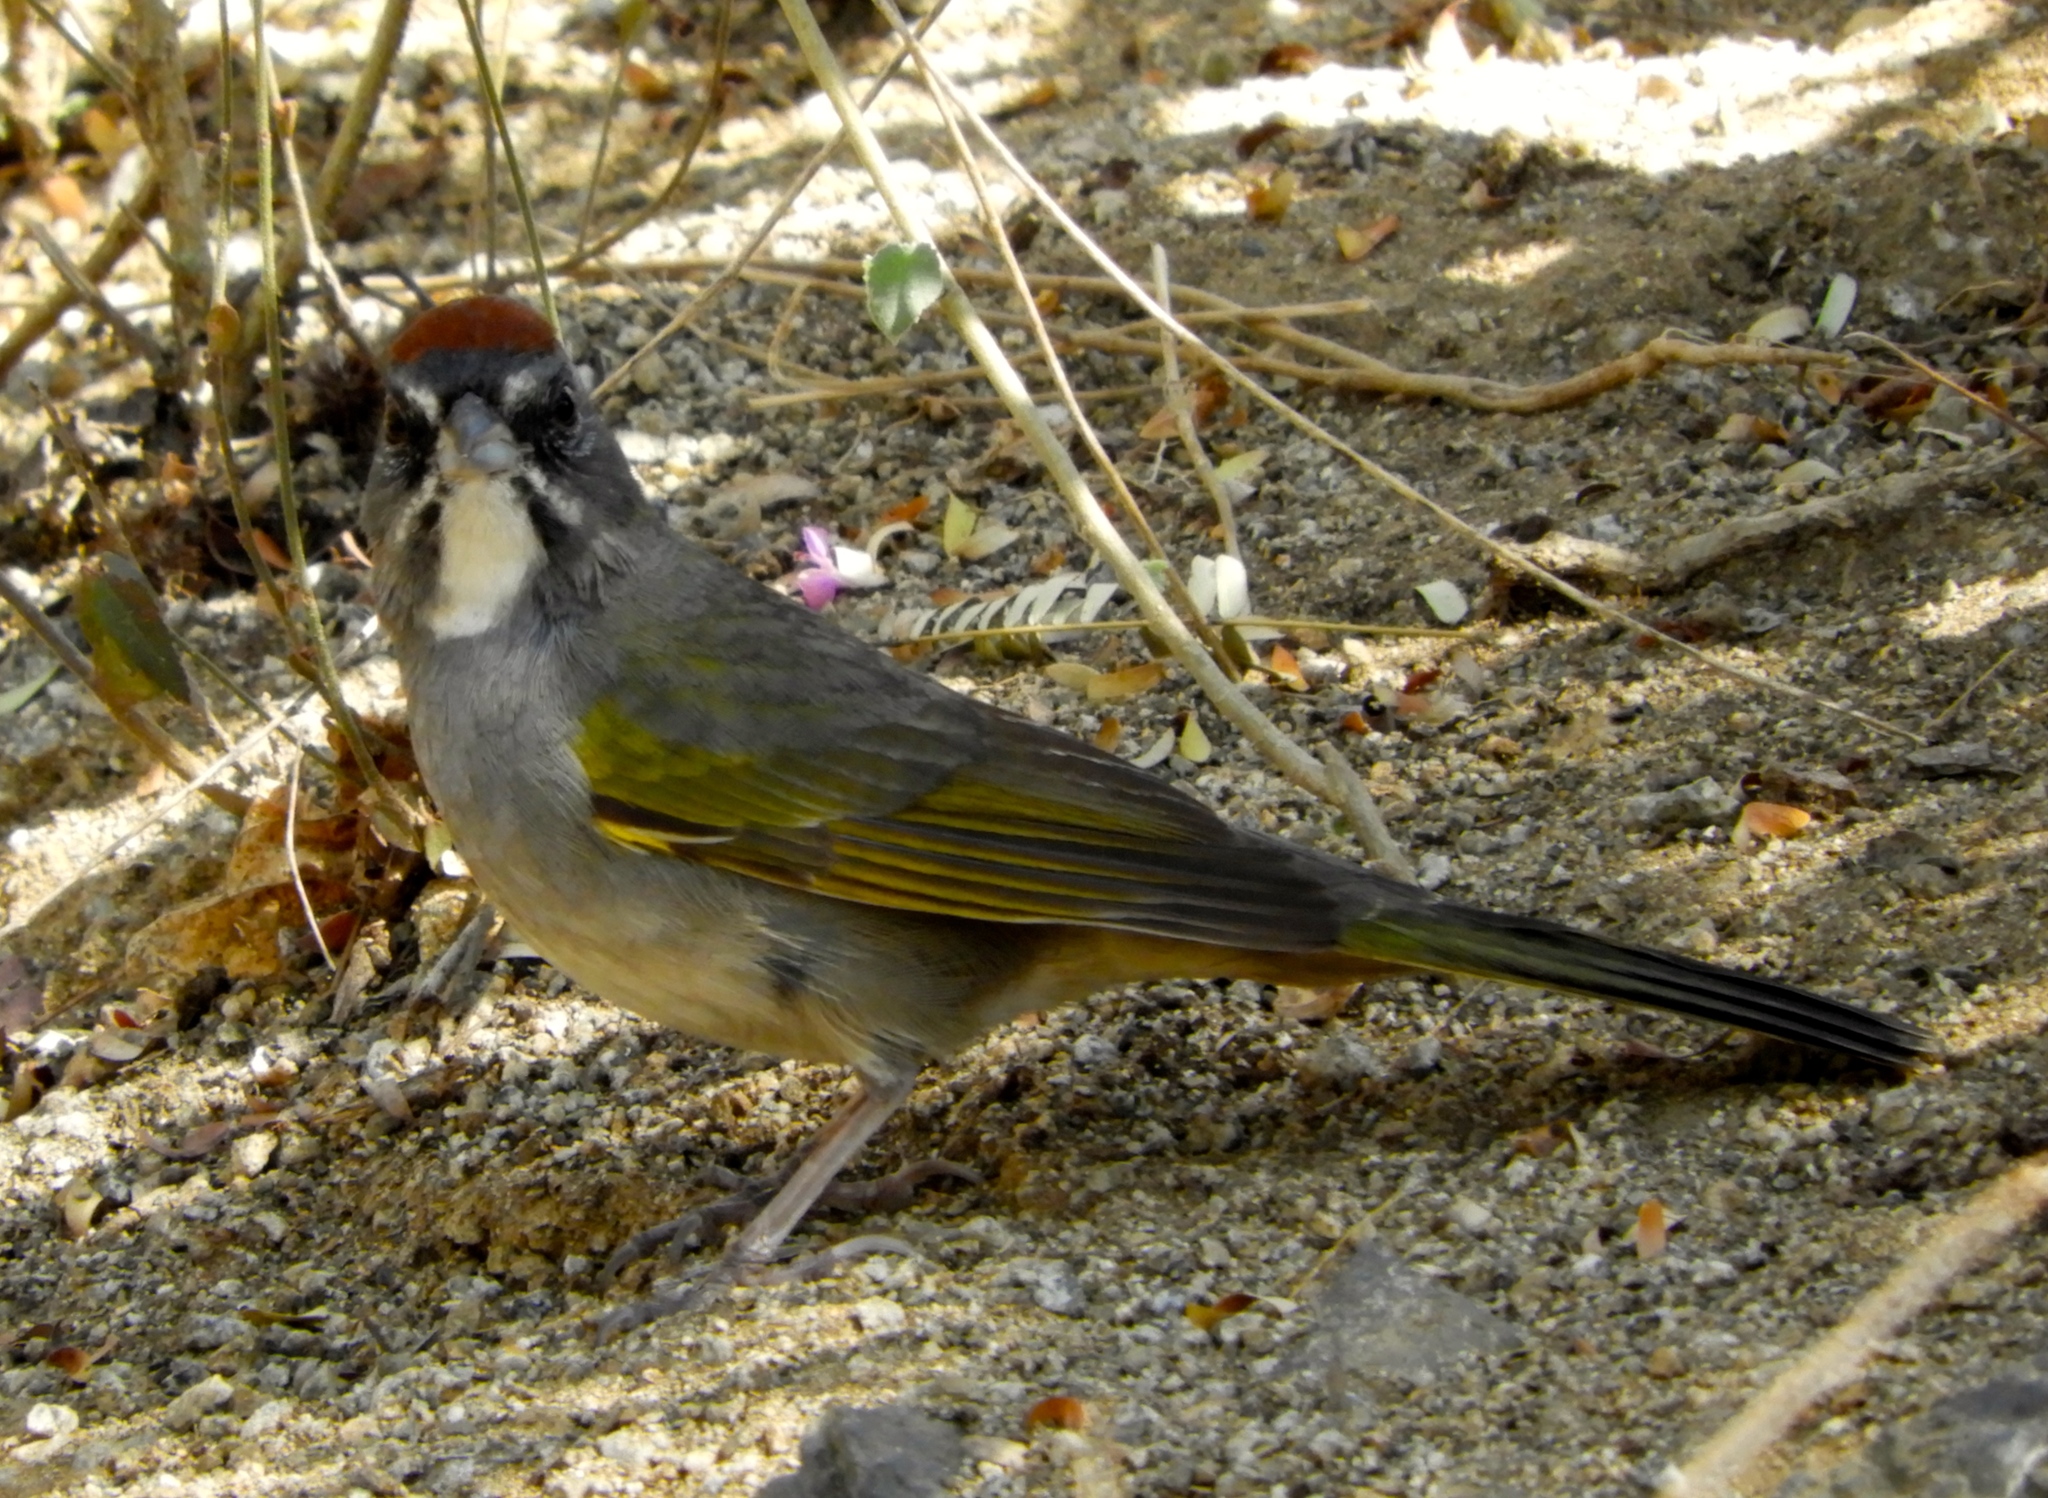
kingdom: Animalia
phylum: Chordata
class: Aves
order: Passeriformes
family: Passerellidae
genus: Pipilo
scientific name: Pipilo chlorurus
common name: Green-tailed towhee
